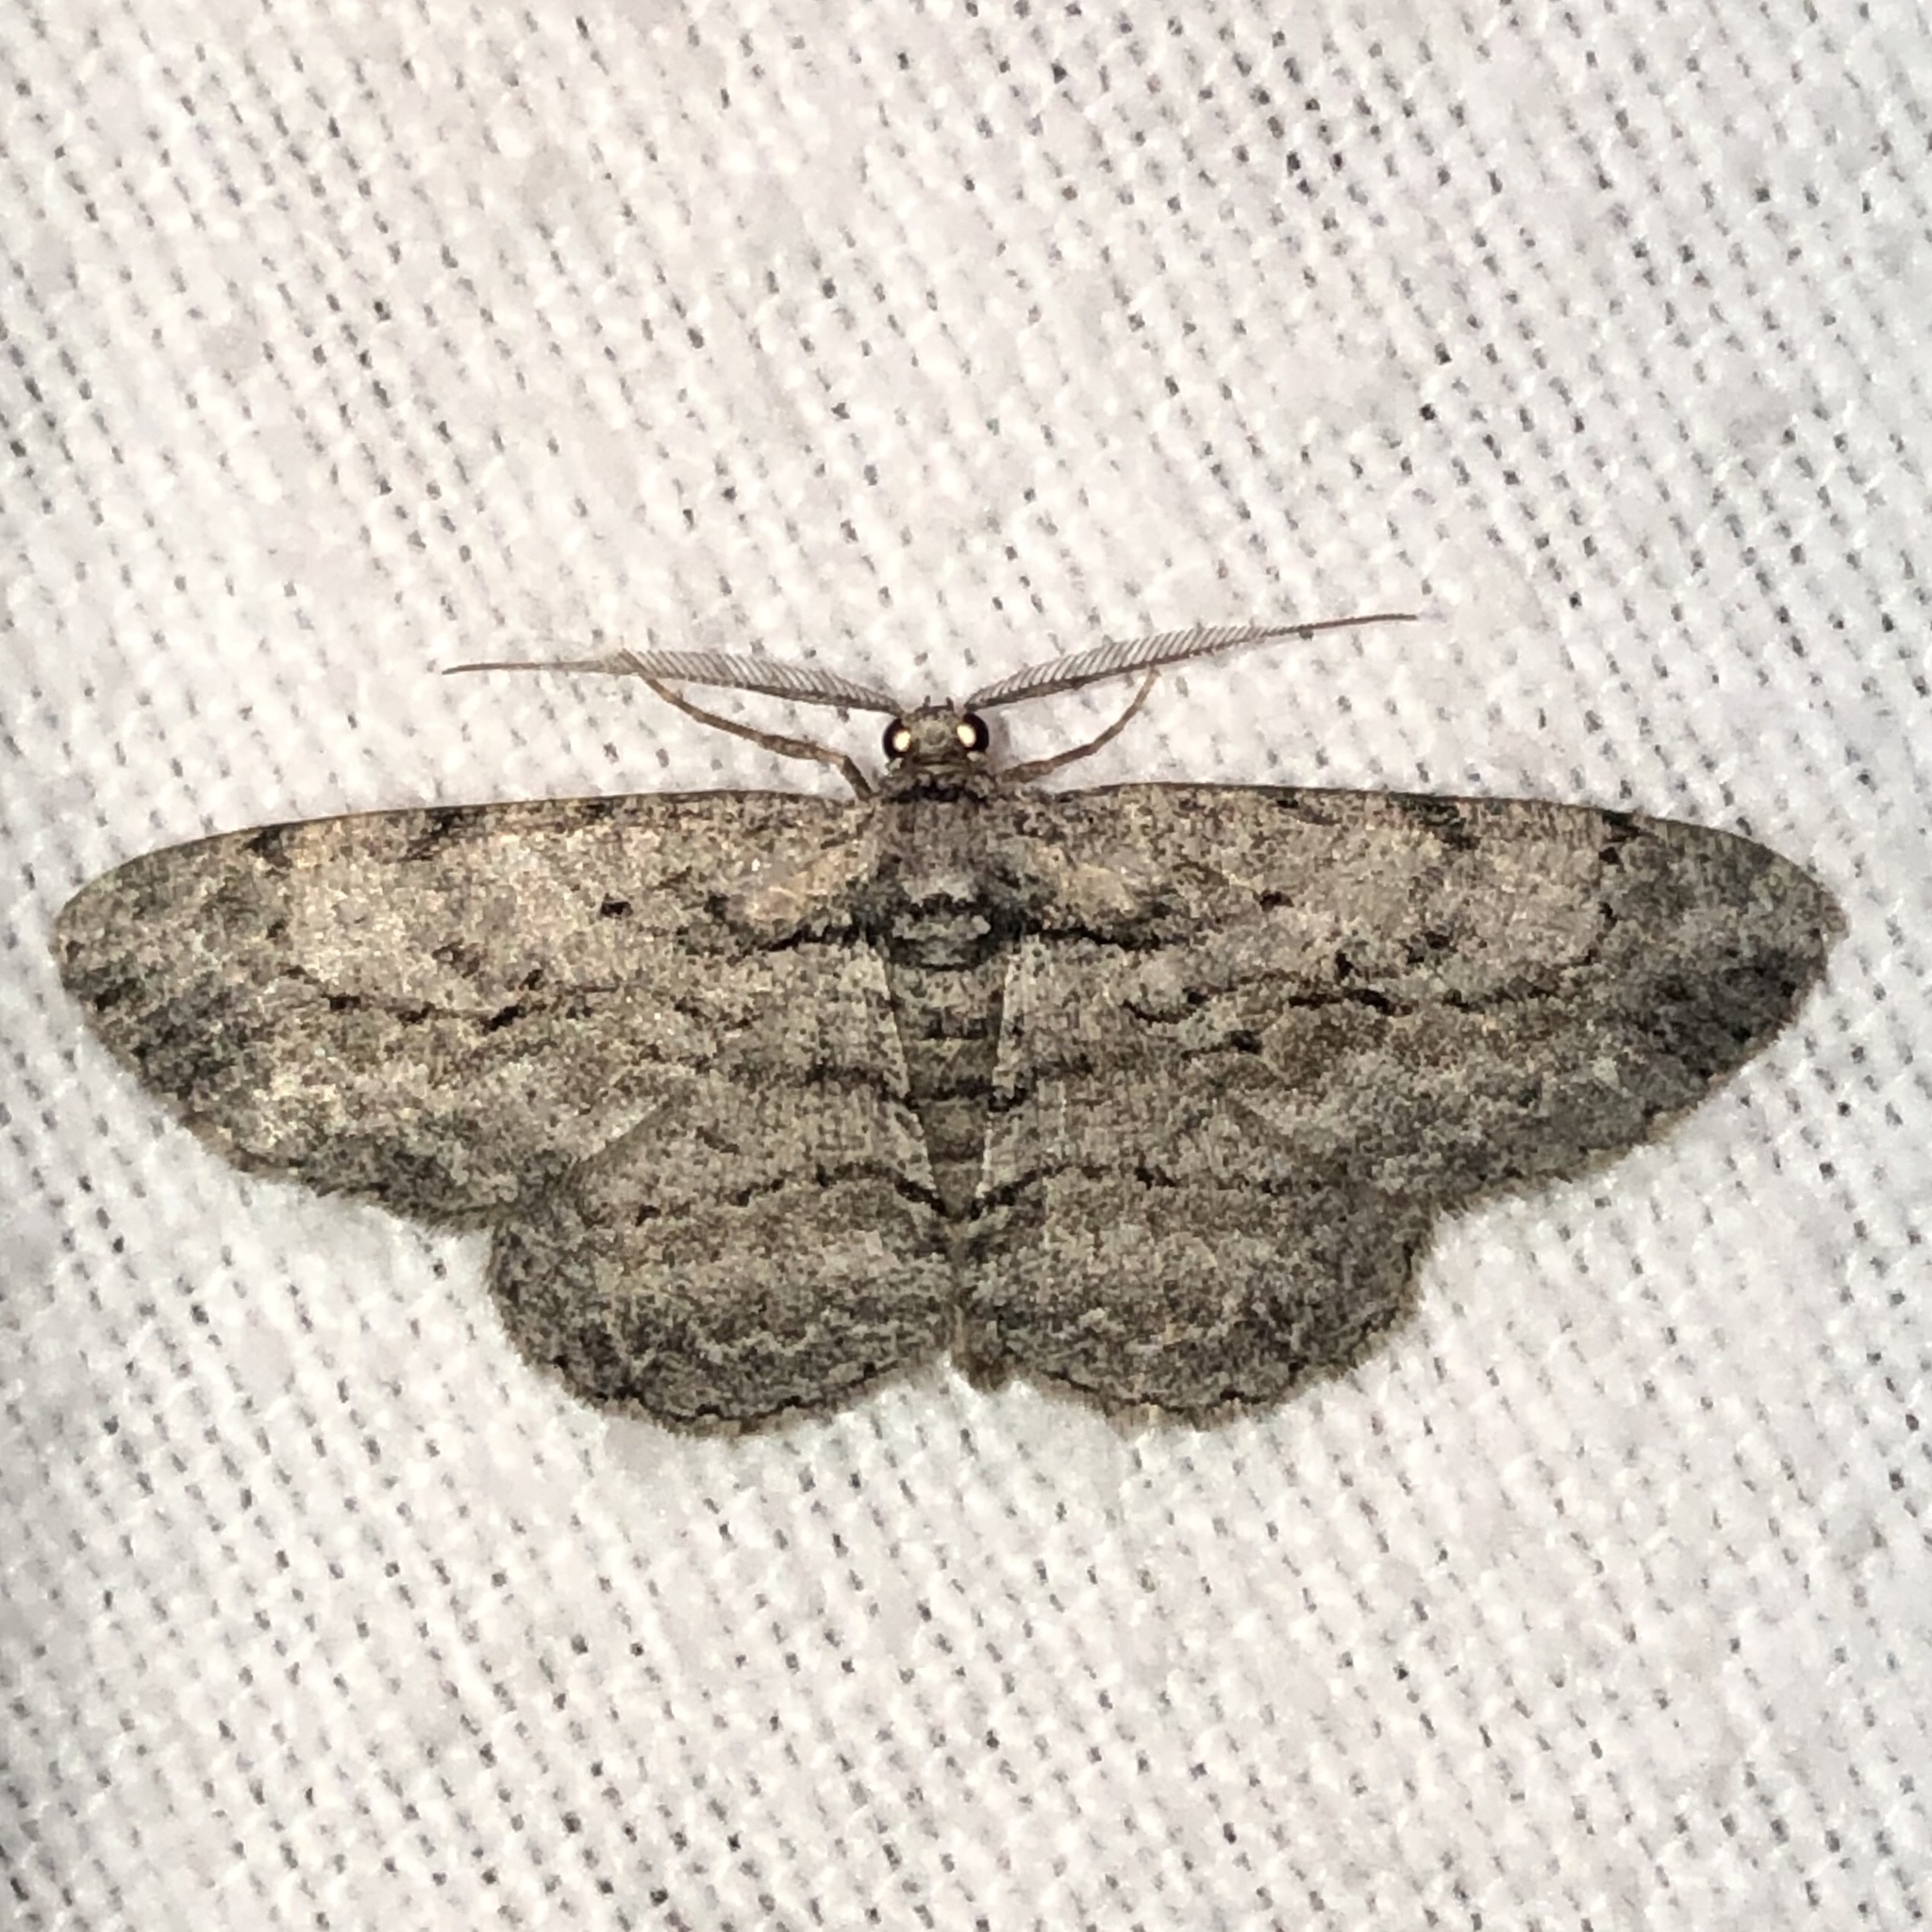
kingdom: Animalia
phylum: Arthropoda
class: Insecta
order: Lepidoptera
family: Geometridae
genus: Anavitrinella
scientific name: Anavitrinella pampinaria
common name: Common gray
